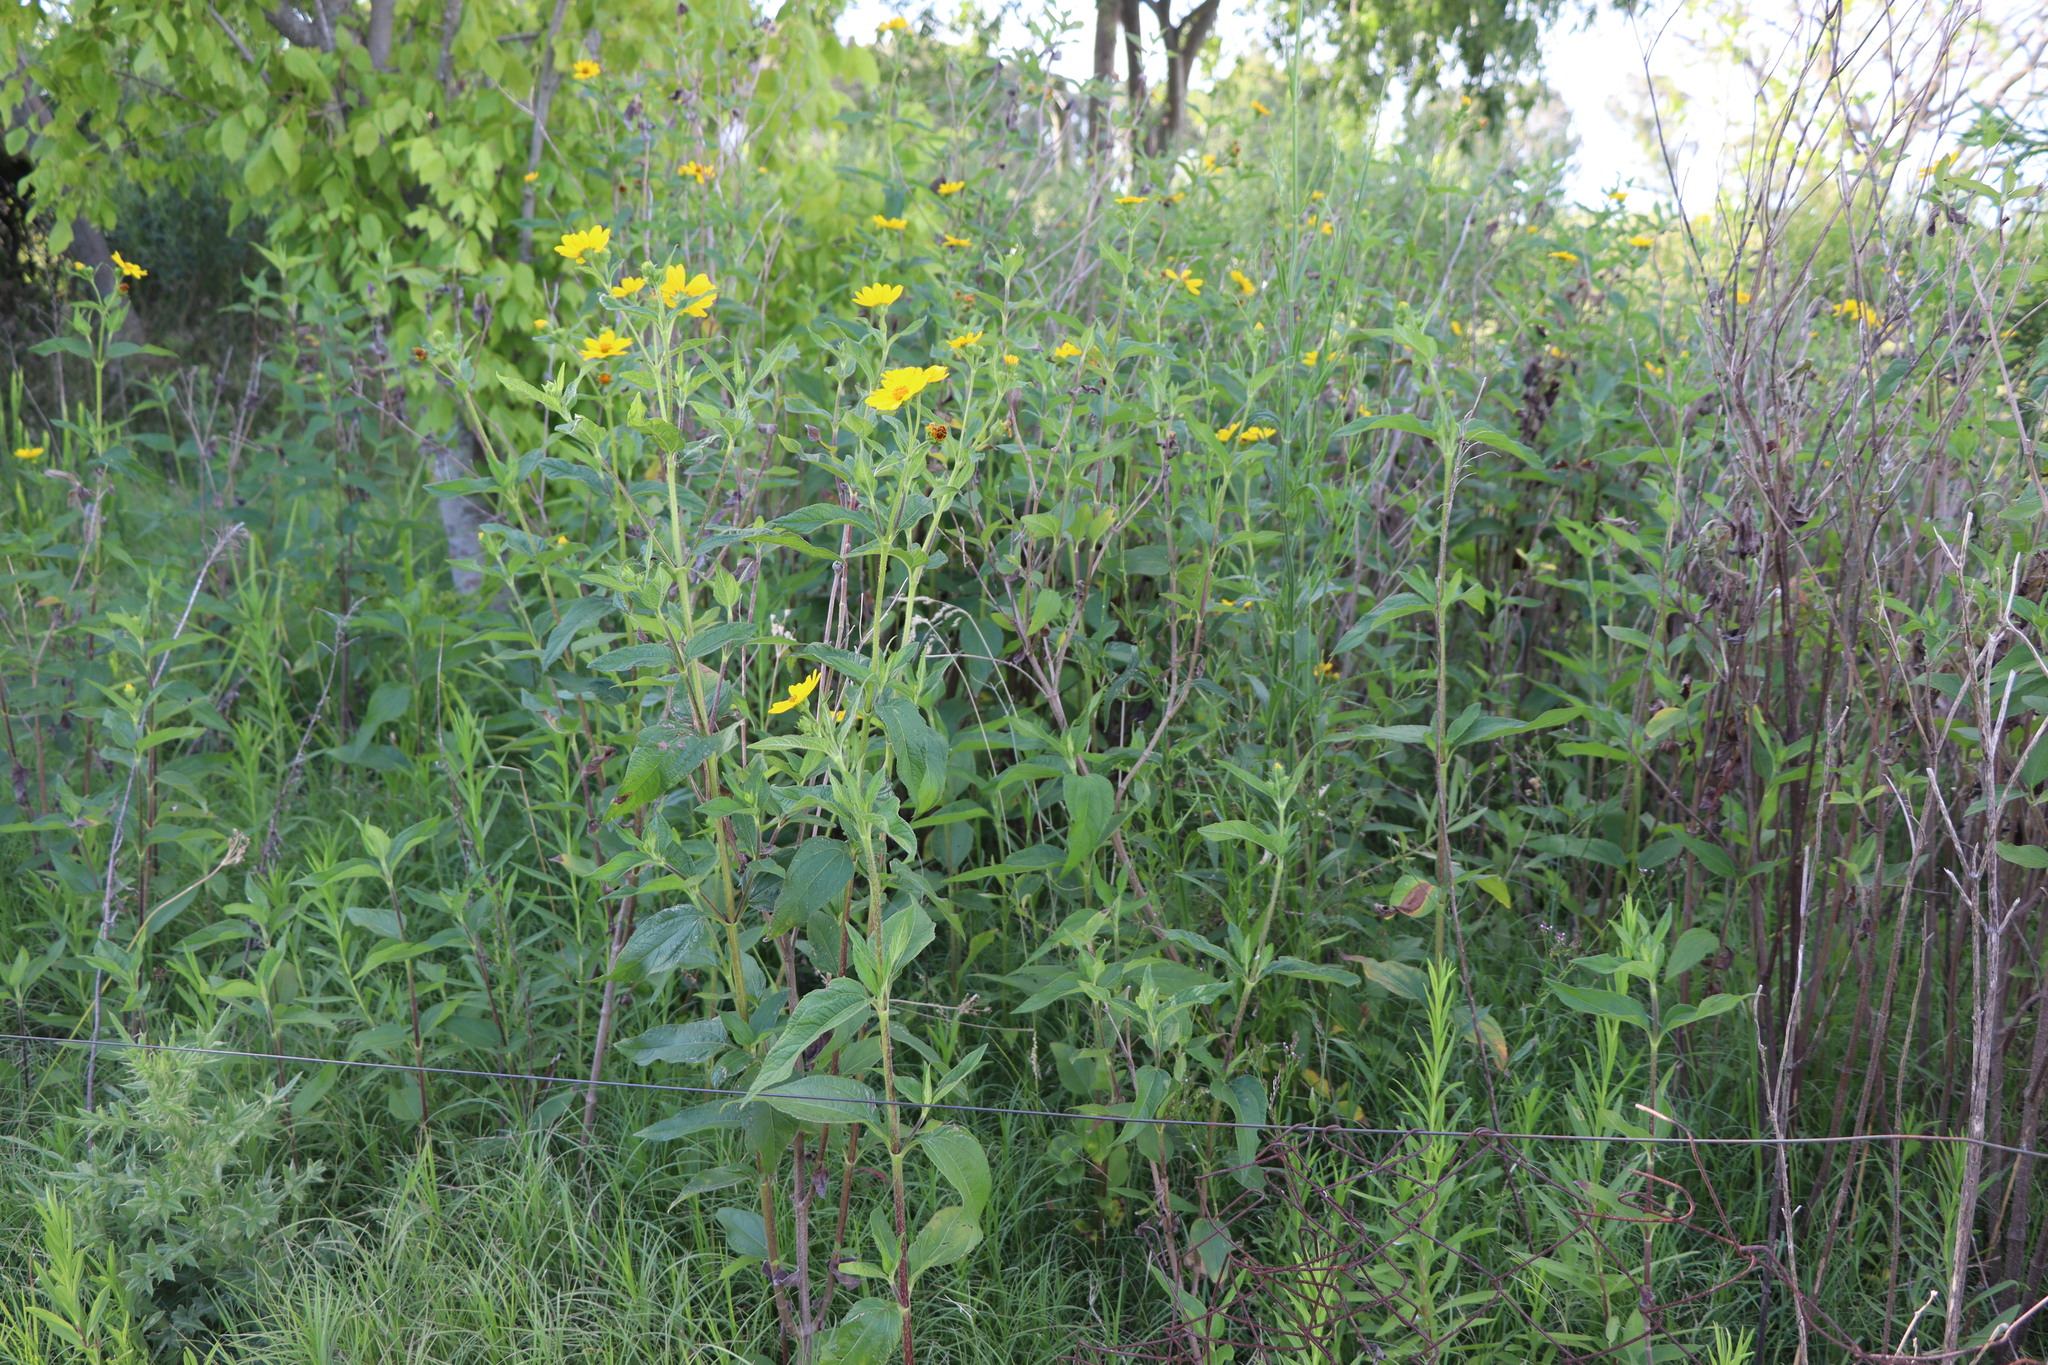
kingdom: Plantae
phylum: Tracheophyta
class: Magnoliopsida
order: Asterales
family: Asteraceae
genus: Wedelia
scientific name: Wedelia silphioides
